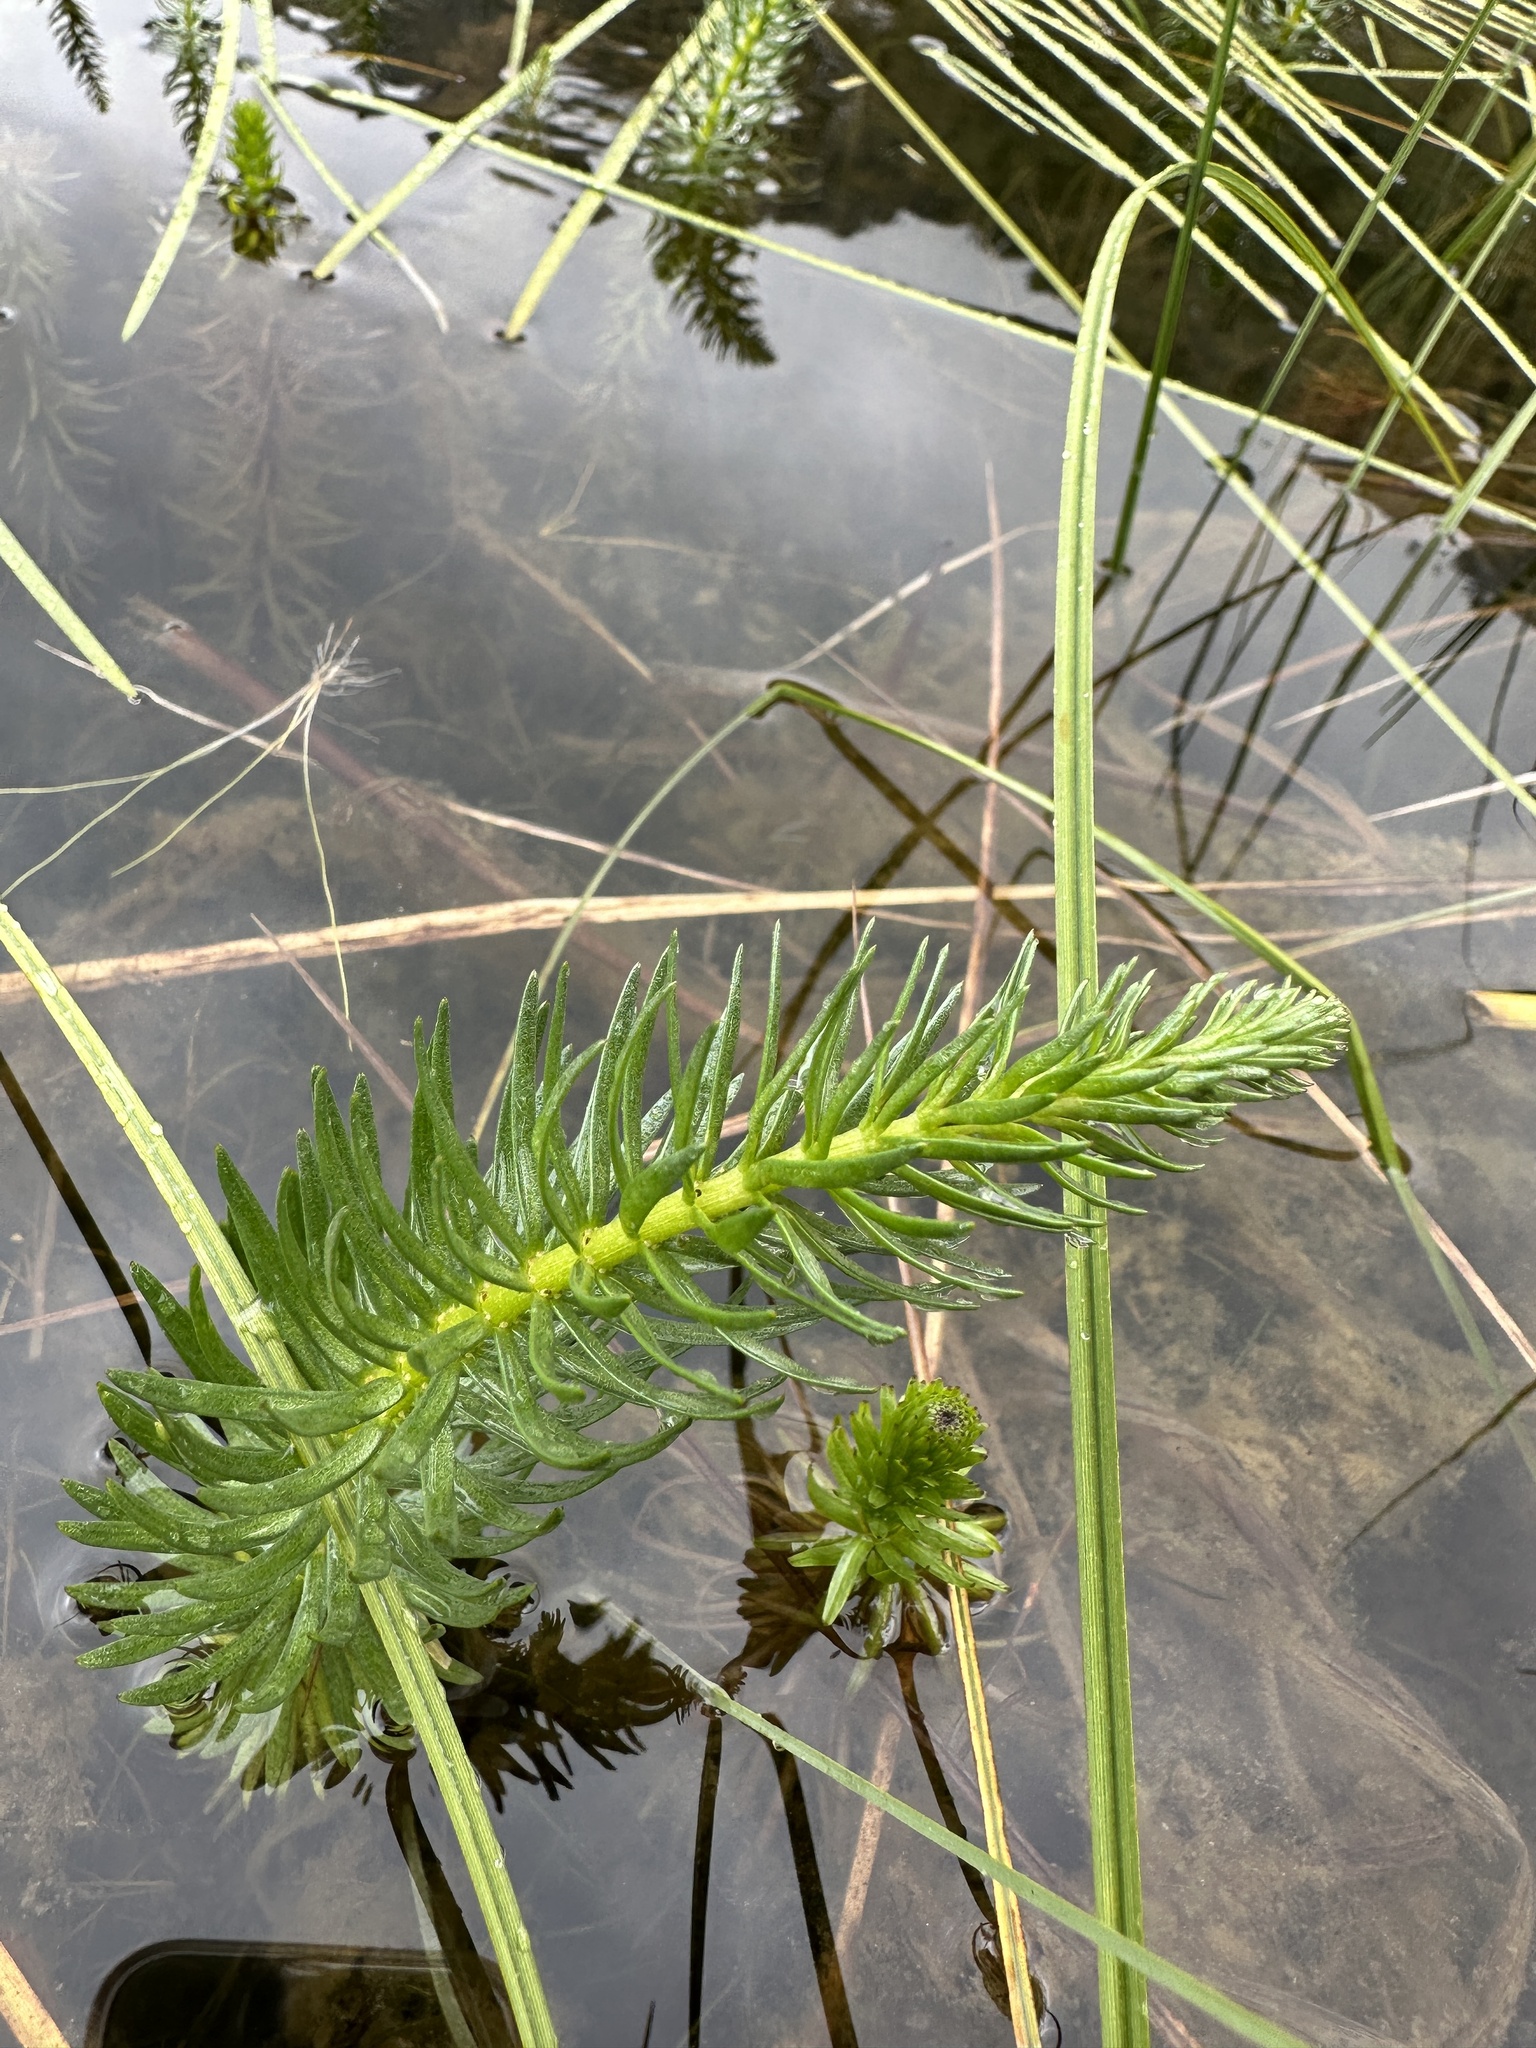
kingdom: Plantae
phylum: Tracheophyta
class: Magnoliopsida
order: Lamiales
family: Plantaginaceae
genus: Hippuris
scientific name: Hippuris vulgaris
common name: Mare's-tail
